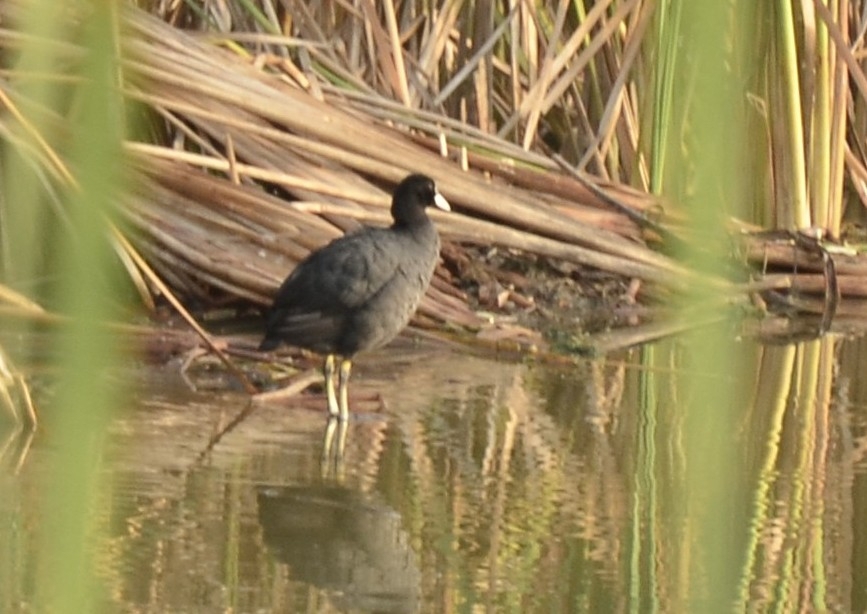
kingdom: Animalia
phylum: Chordata
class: Aves
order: Gruiformes
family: Rallidae
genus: Fulica
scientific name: Fulica atra
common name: Eurasian coot
